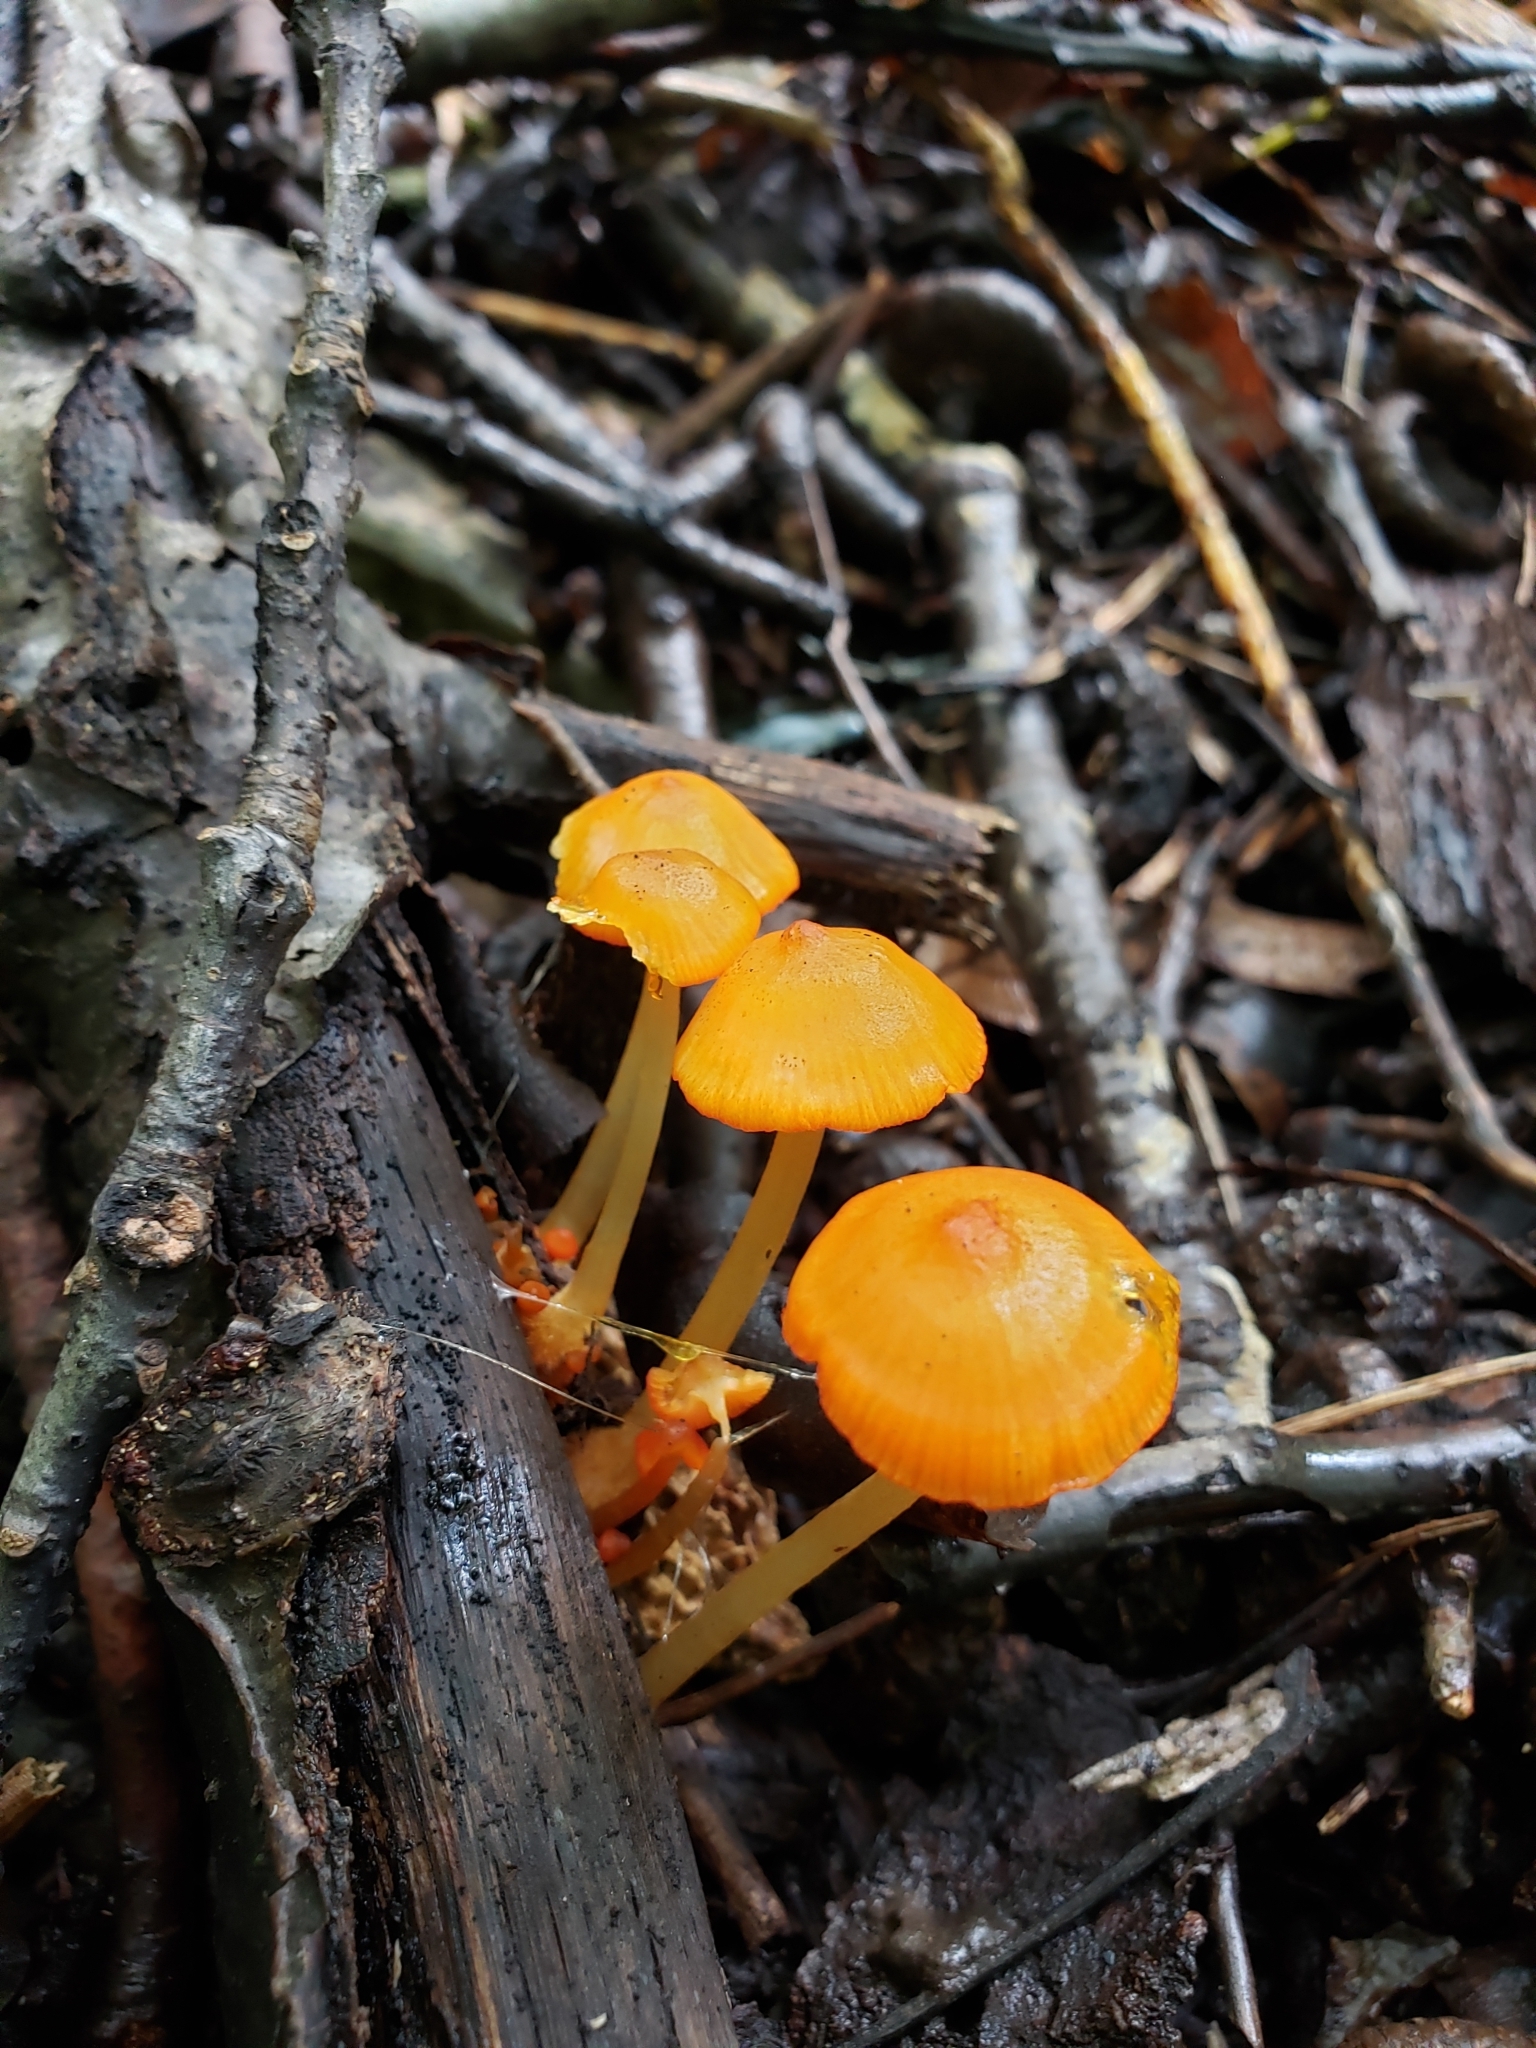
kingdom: Fungi
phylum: Basidiomycota
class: Agaricomycetes
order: Agaricales
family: Mycenaceae
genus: Mycena
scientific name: Mycena leaiana
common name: Orange mycena
